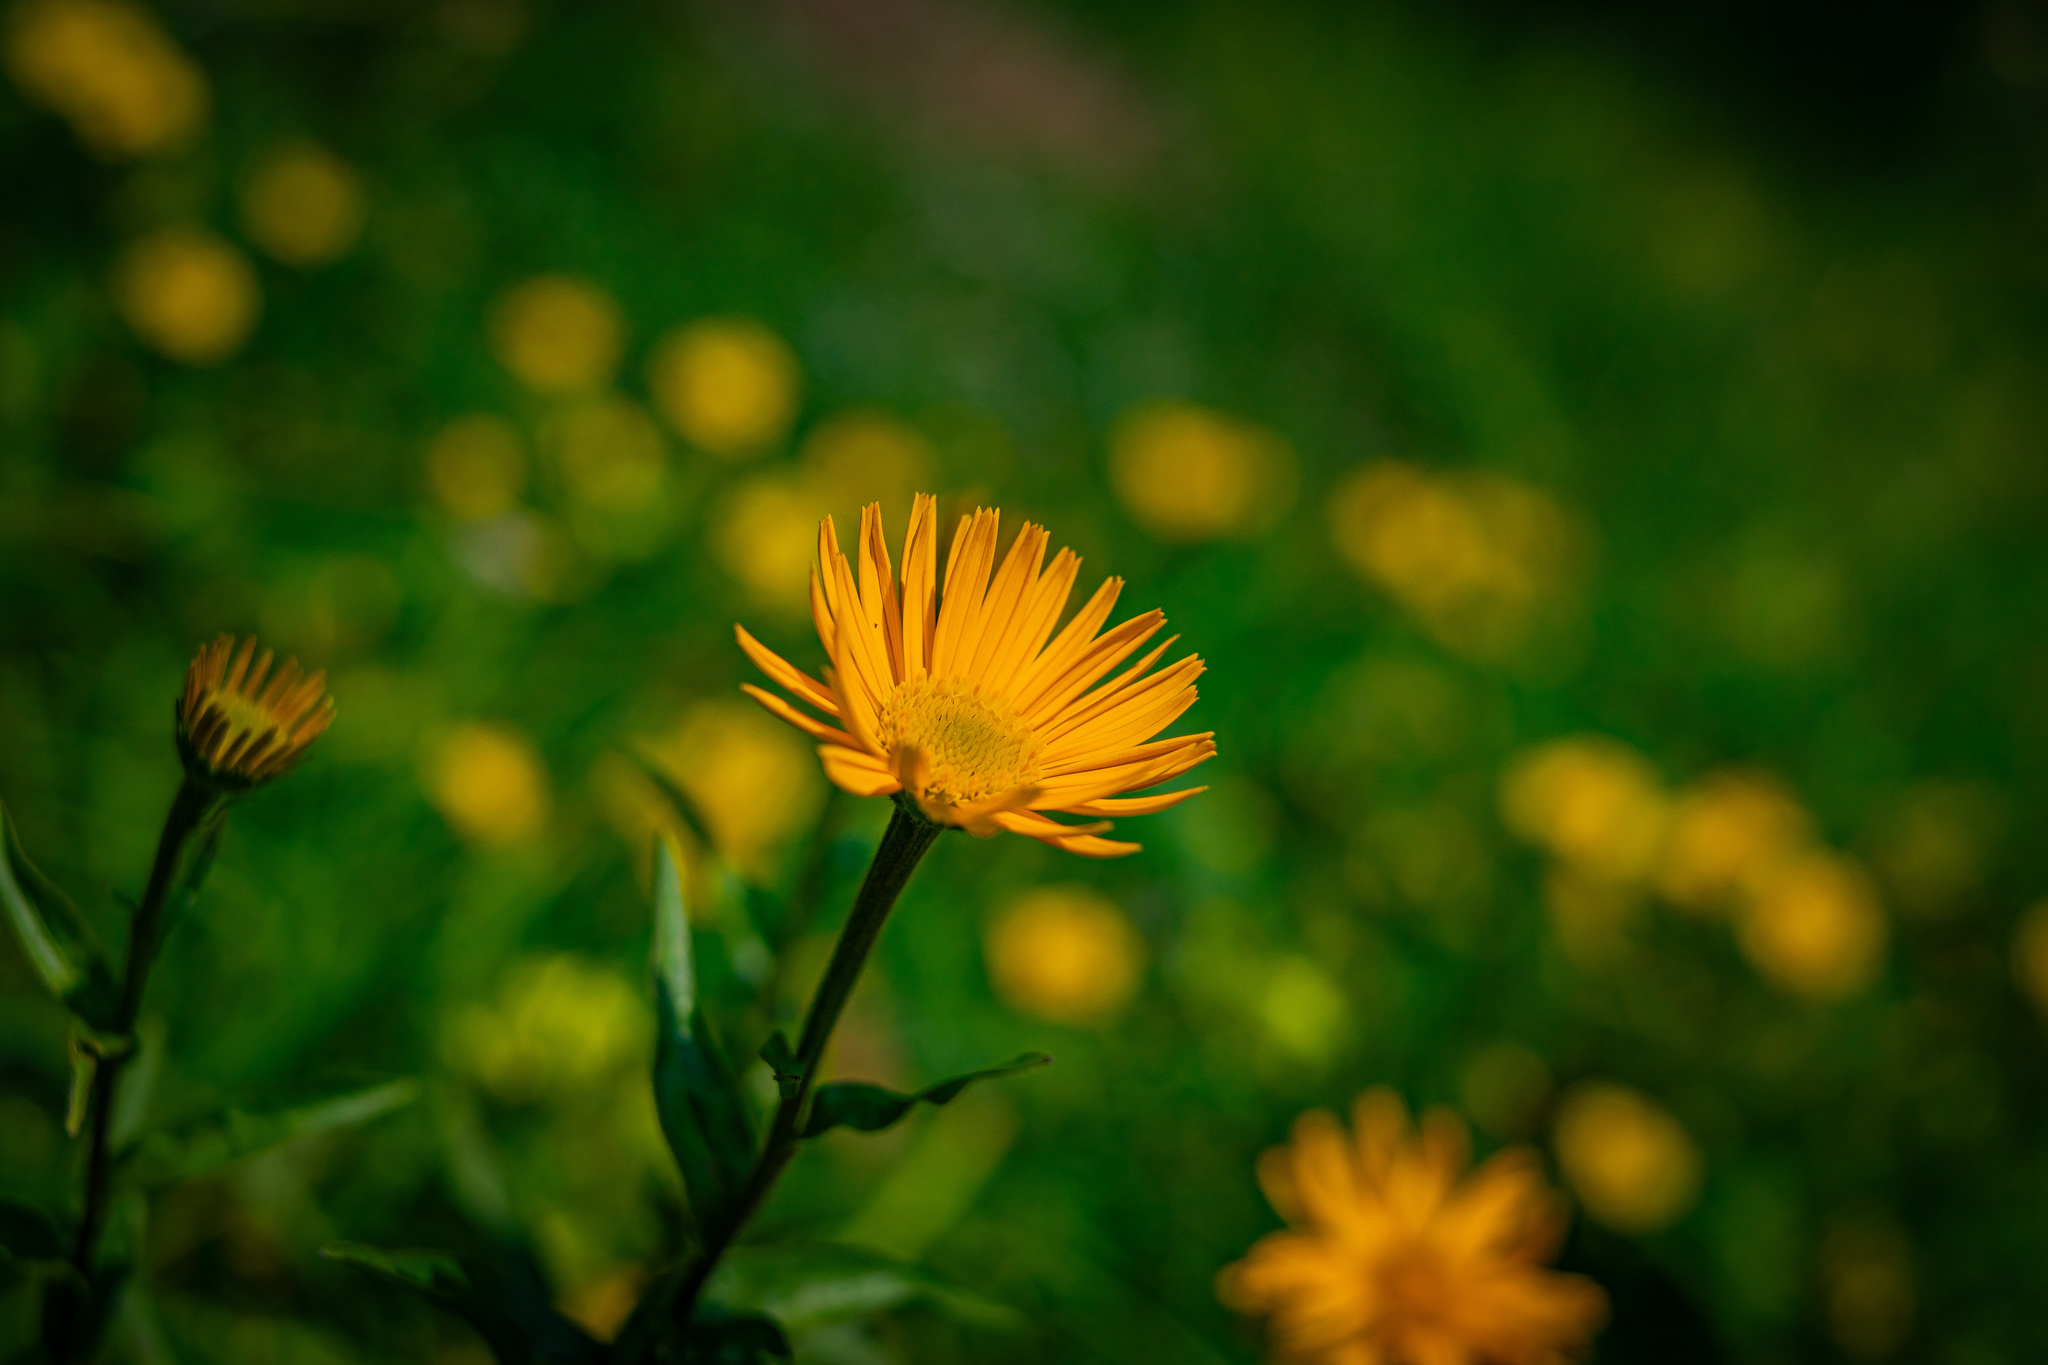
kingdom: Plantae
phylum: Tracheophyta
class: Magnoliopsida
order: Asterales
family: Asteraceae
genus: Buphthalmum
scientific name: Buphthalmum salicifolium
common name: Willow-leaved yellow-oxeye
